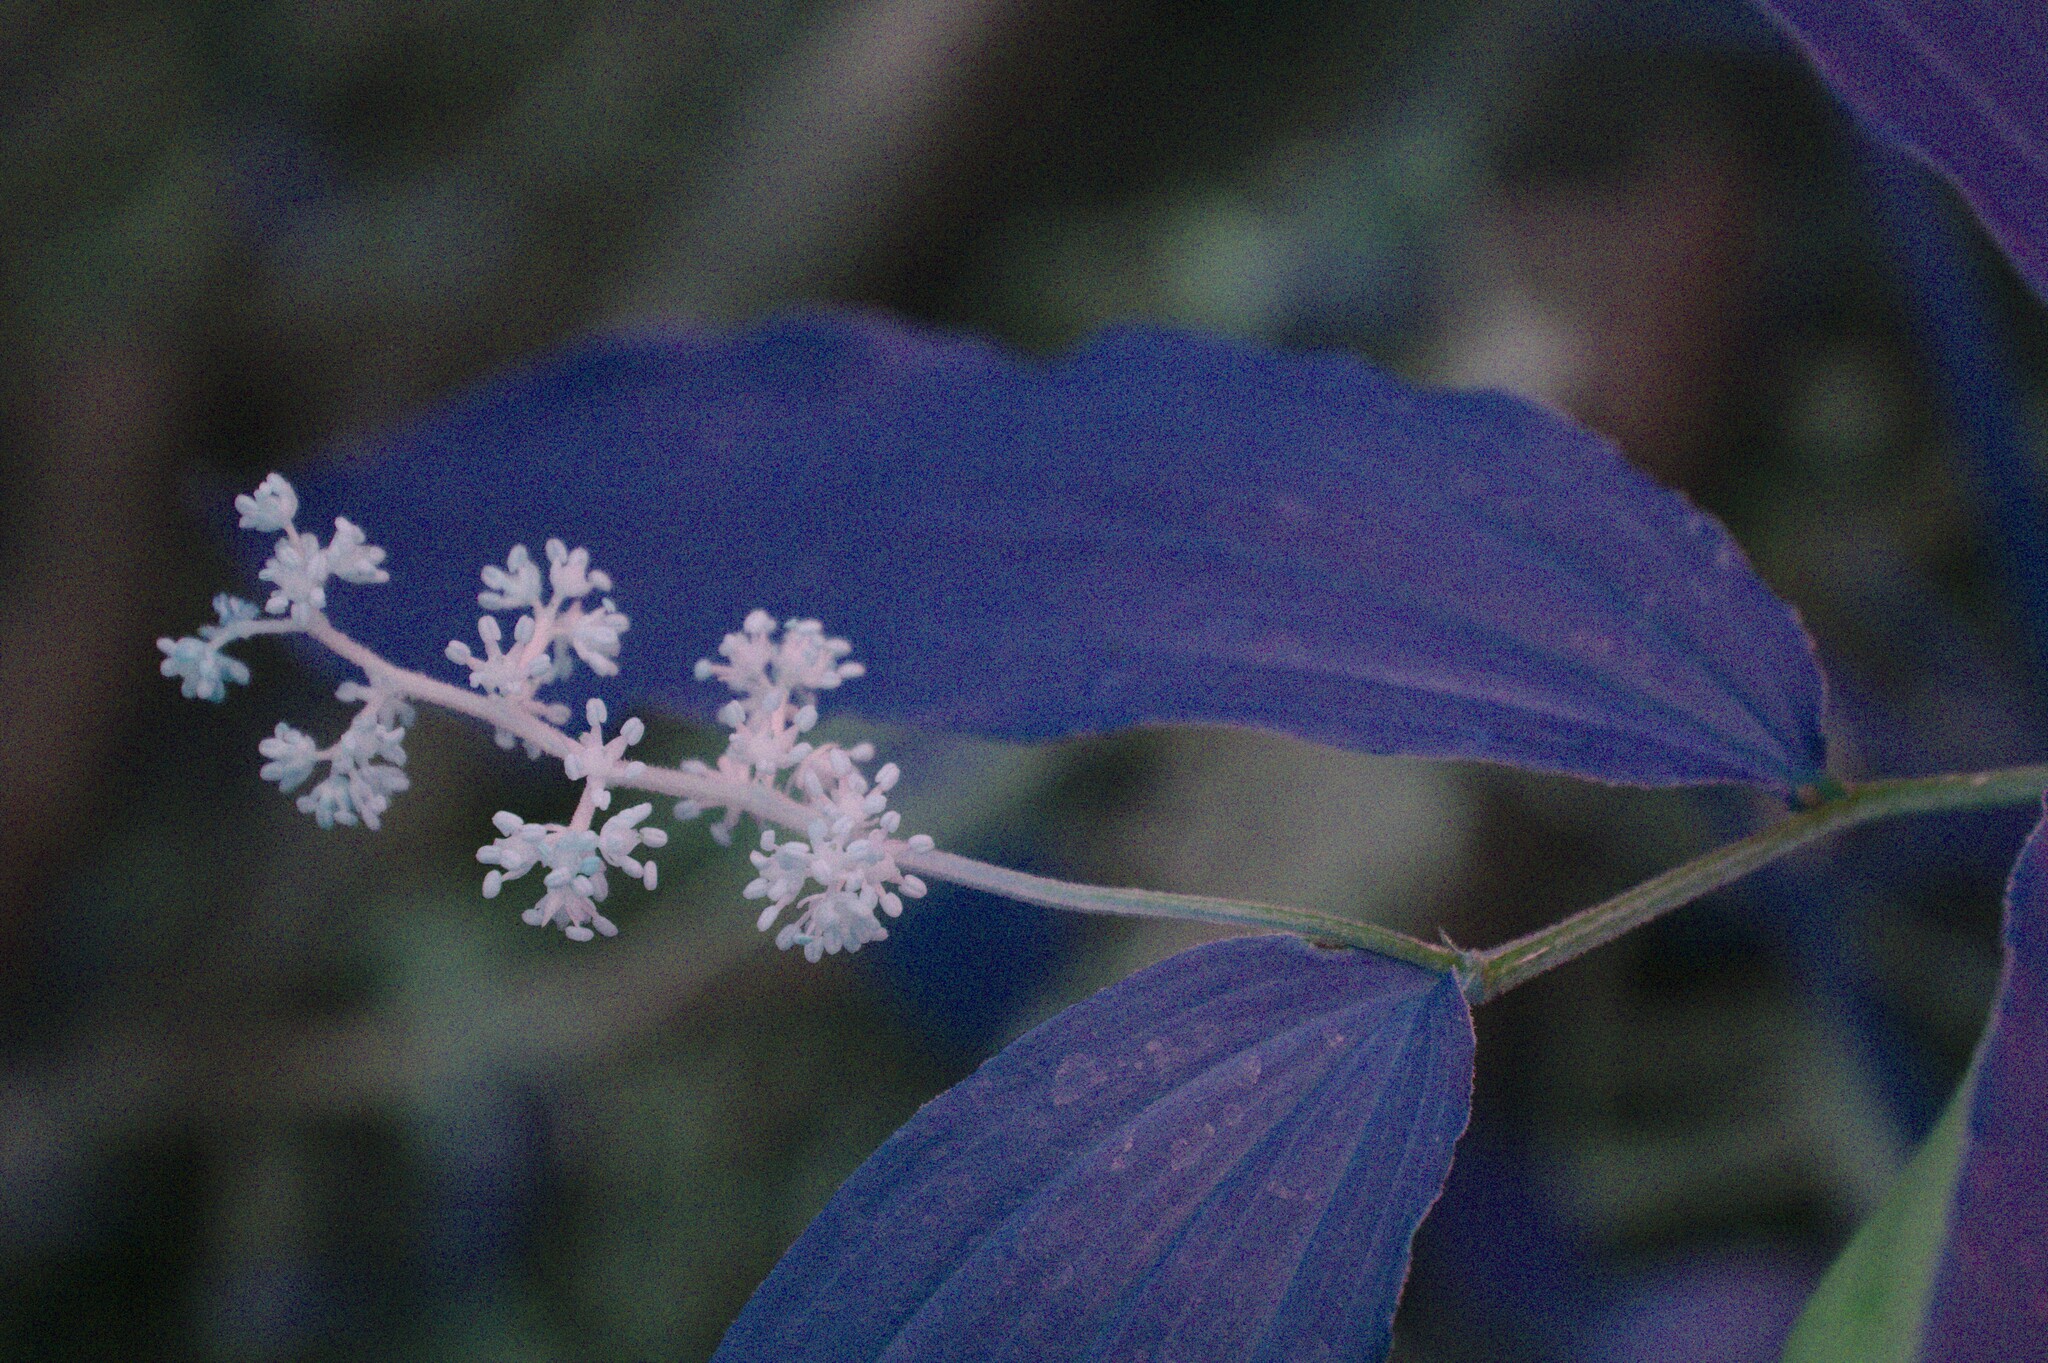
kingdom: Plantae
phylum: Tracheophyta
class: Liliopsida
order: Asparagales
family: Asparagaceae
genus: Maianthemum
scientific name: Maianthemum racemosum
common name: False spikenard
